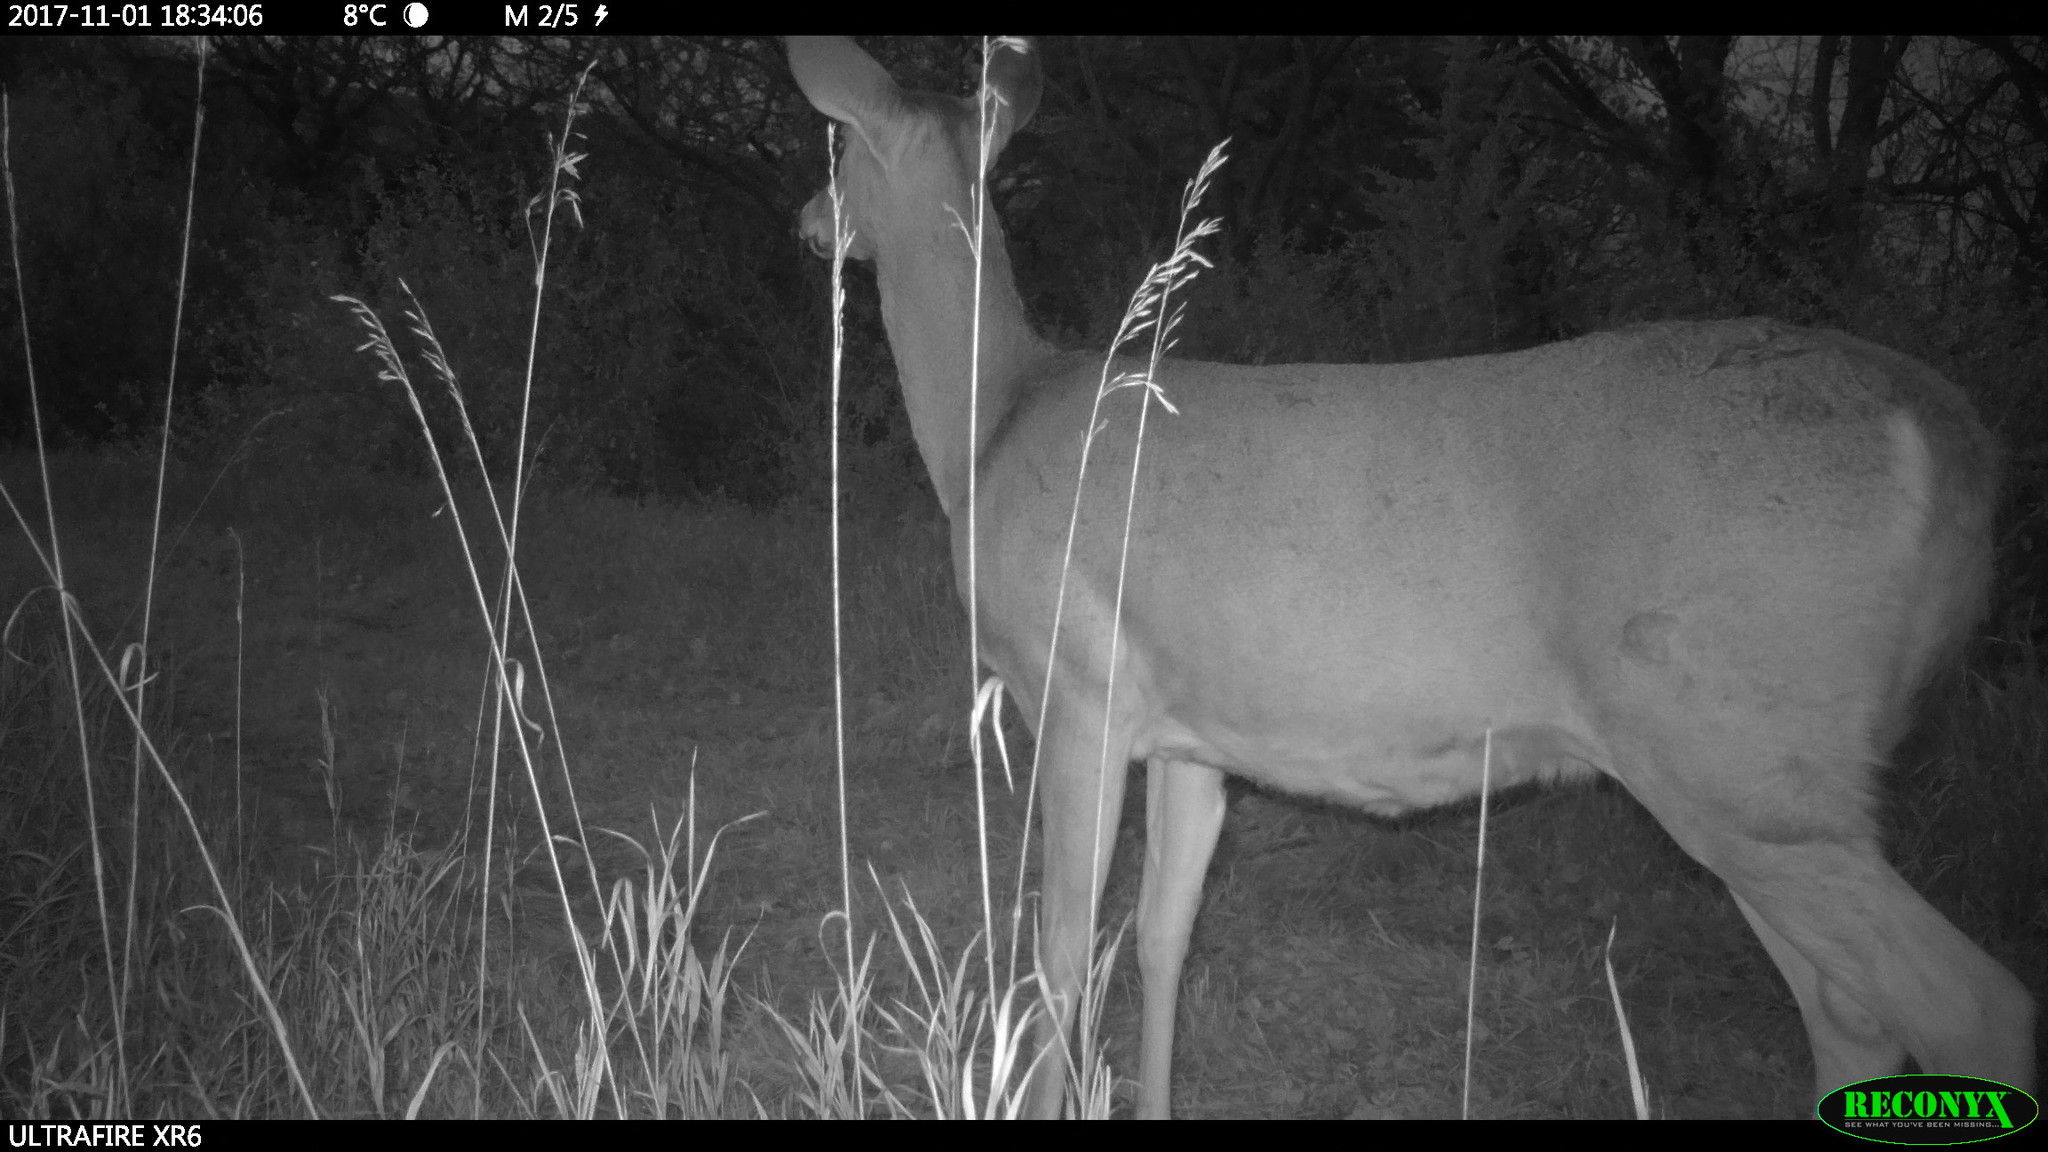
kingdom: Animalia
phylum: Chordata
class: Mammalia
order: Artiodactyla
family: Cervidae
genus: Odocoileus
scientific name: Odocoileus virginianus
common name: White-tailed deer
